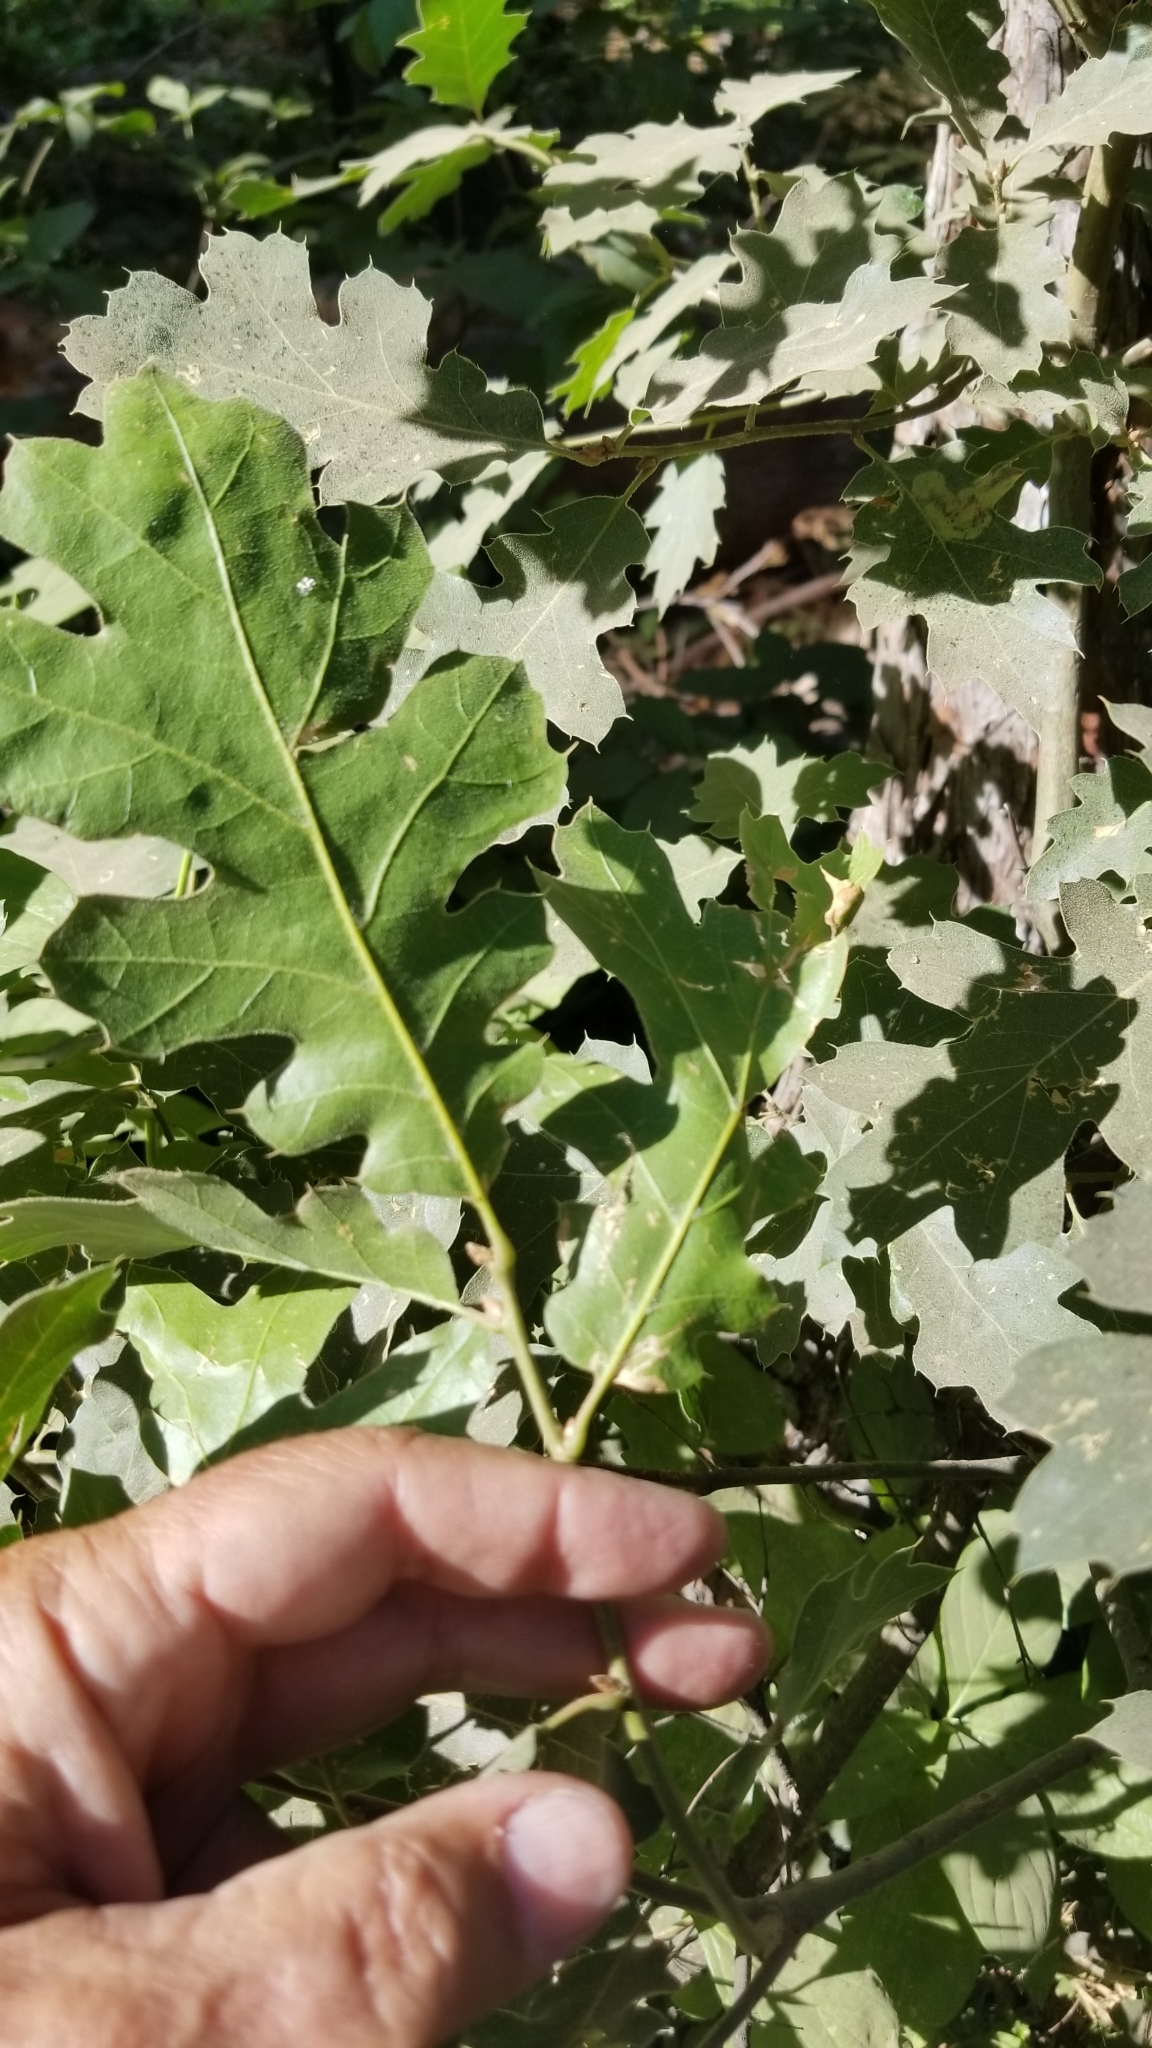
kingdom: Plantae
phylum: Tracheophyta
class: Magnoliopsida
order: Fagales
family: Fagaceae
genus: Quercus
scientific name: Quercus kelloggii
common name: California black oak
